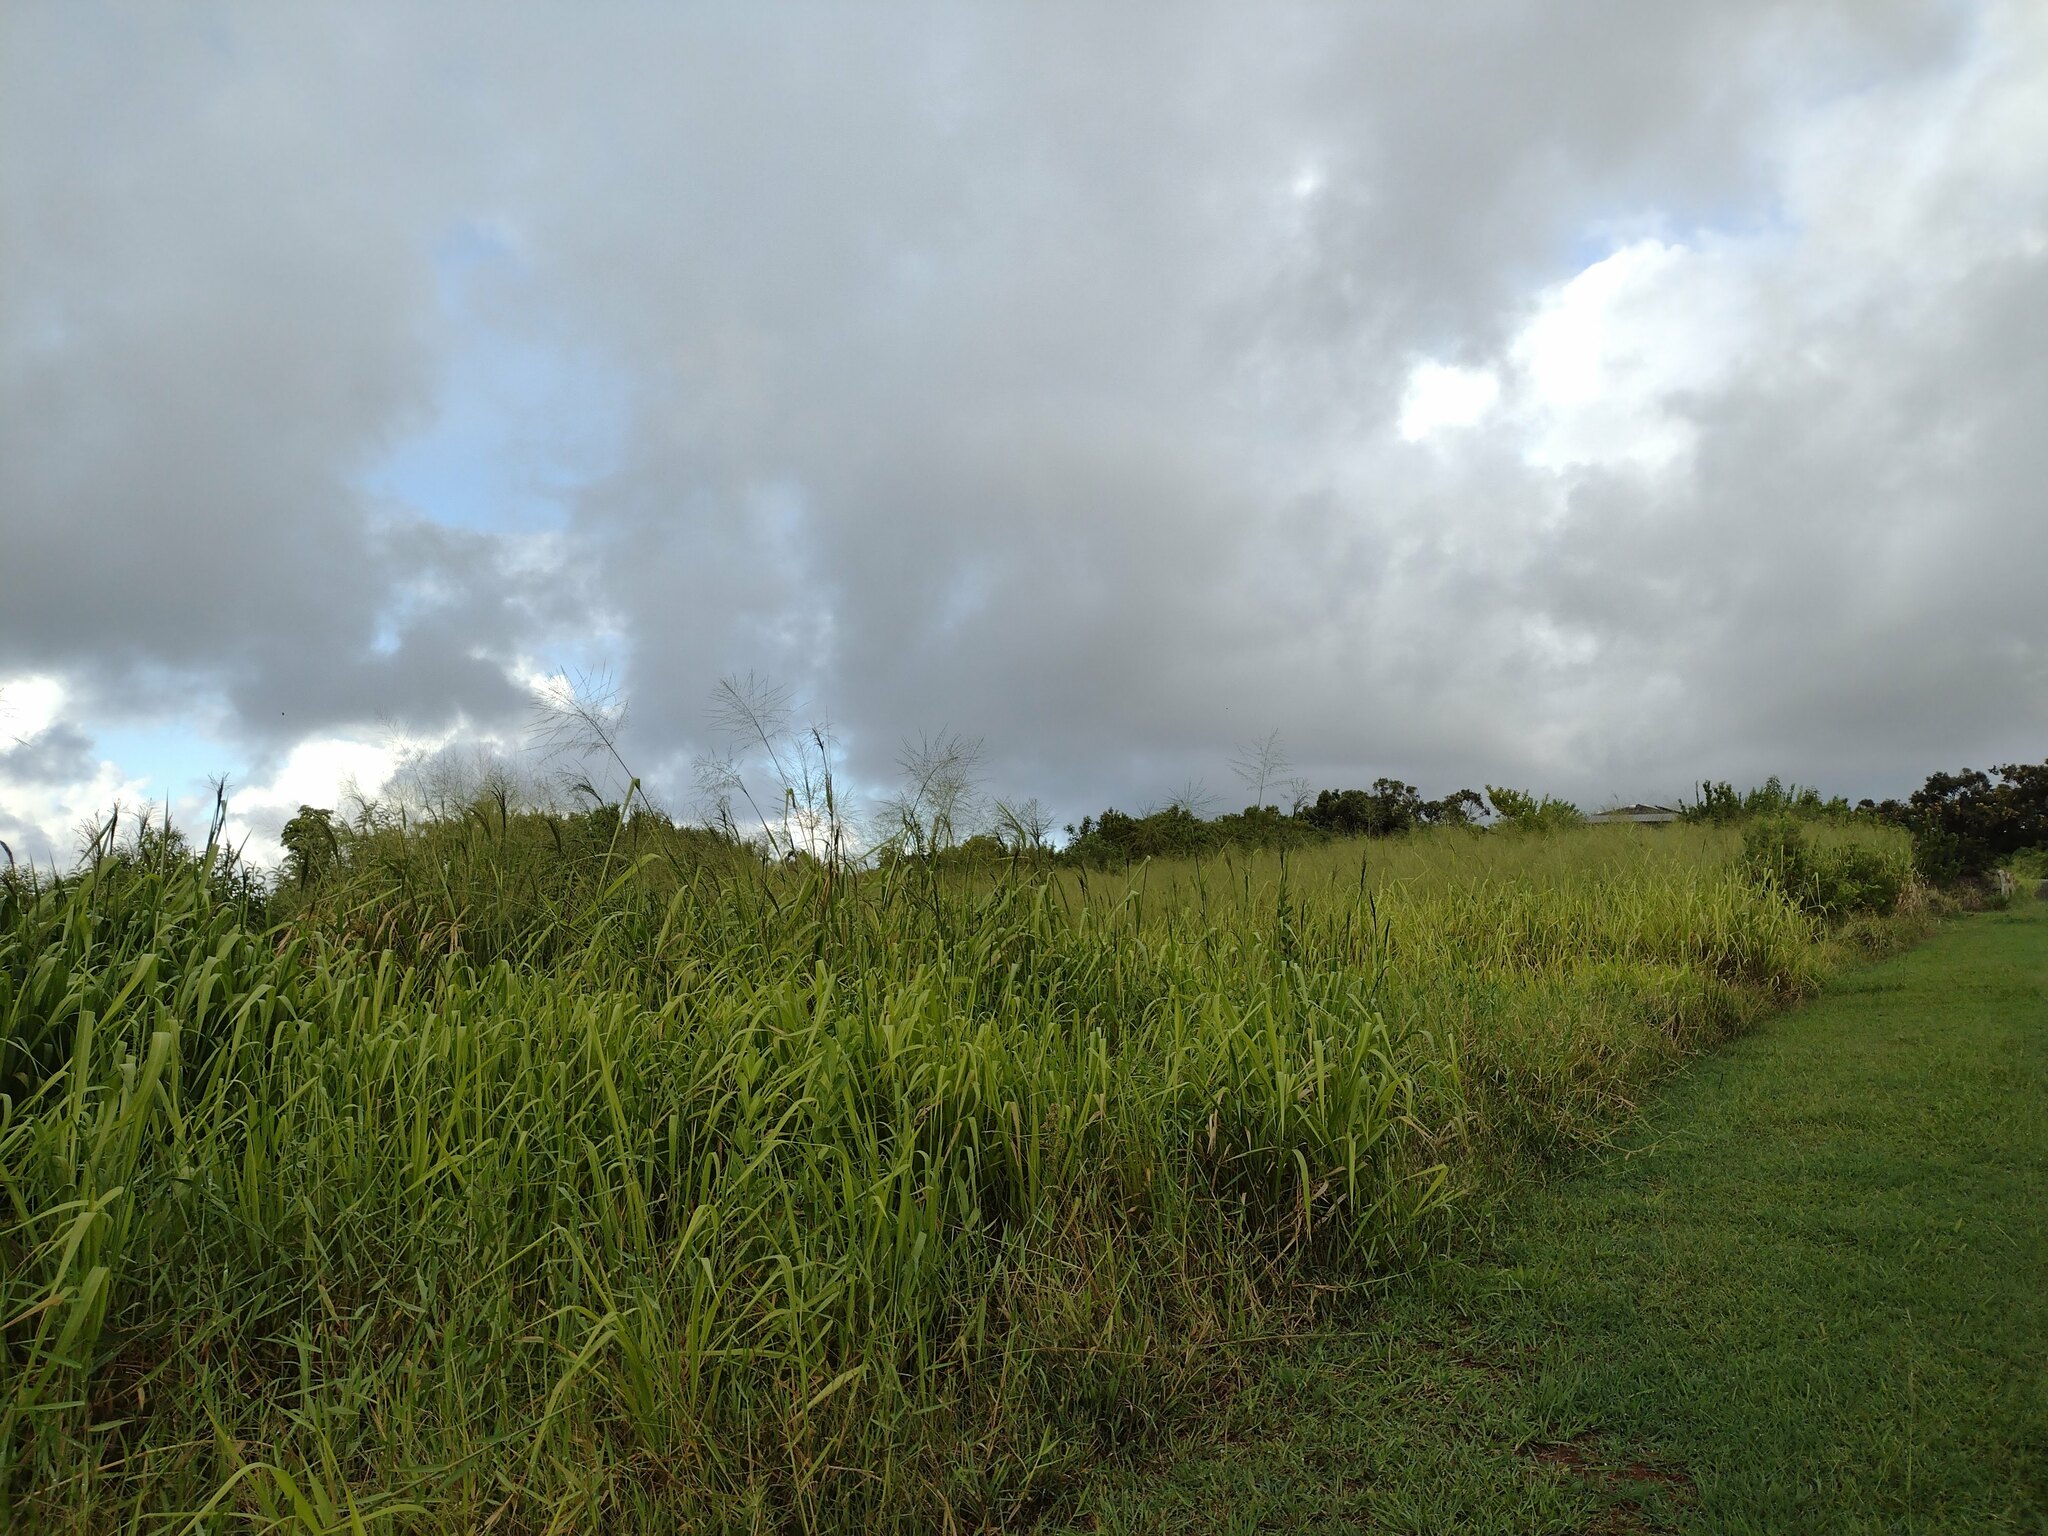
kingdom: Plantae
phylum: Tracheophyta
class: Liliopsida
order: Poales
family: Poaceae
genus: Megathyrsus
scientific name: Megathyrsus maximus
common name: Guineagrass
